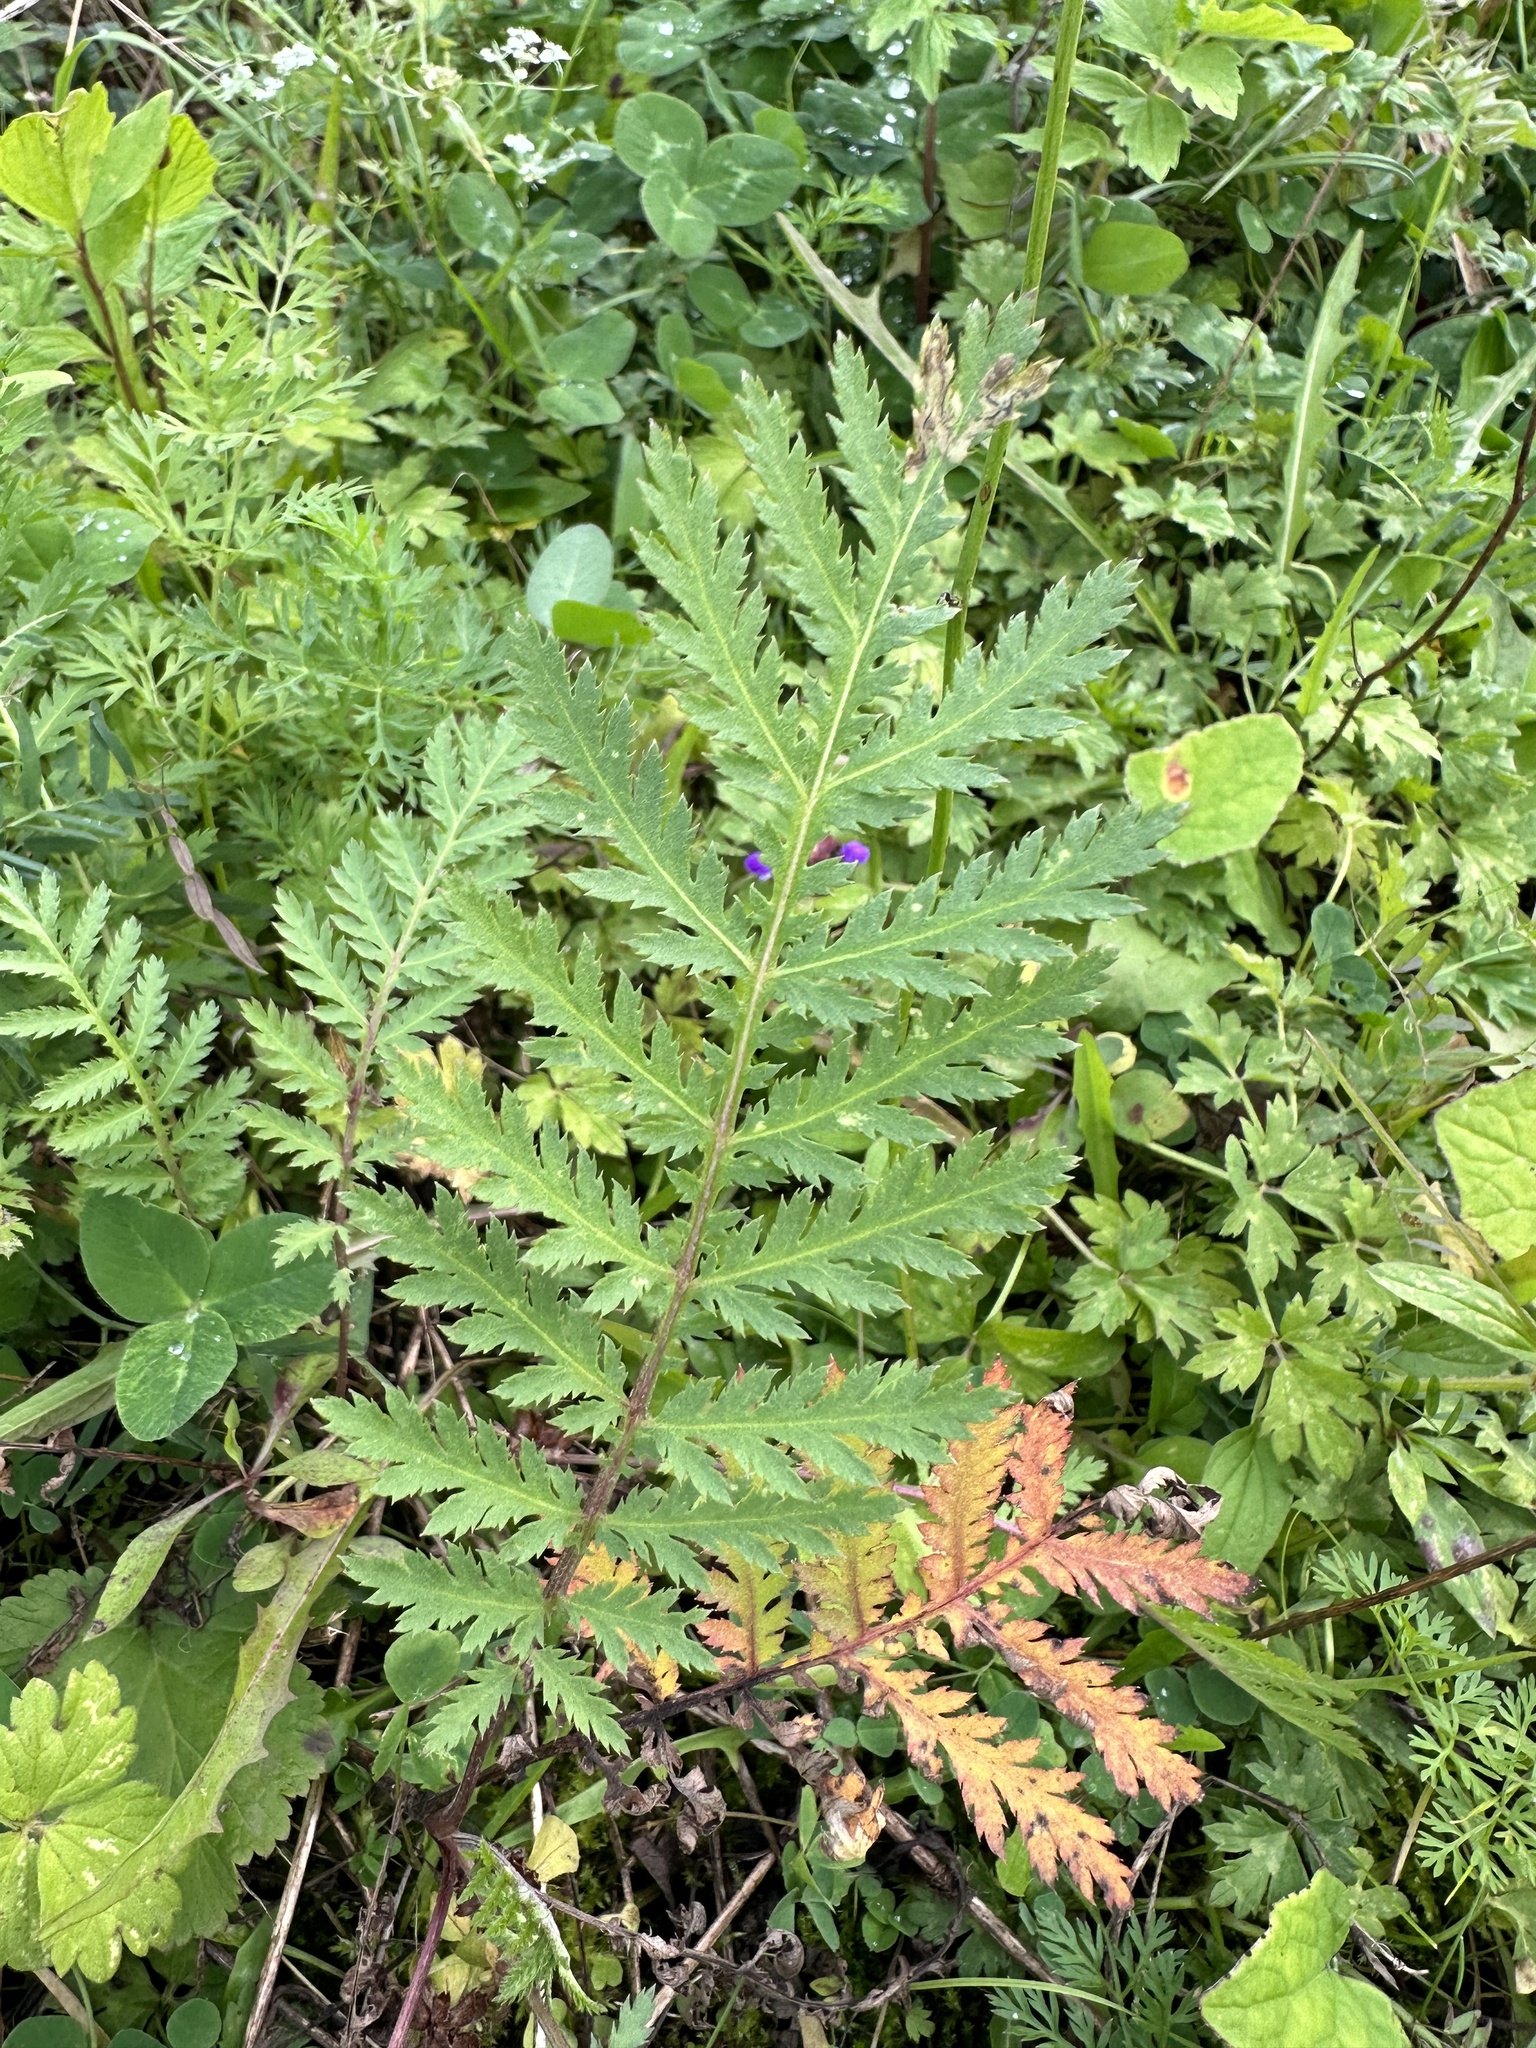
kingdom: Plantae
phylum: Tracheophyta
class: Magnoliopsida
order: Asterales
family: Asteraceae
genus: Tanacetum
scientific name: Tanacetum vulgare
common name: Common tansy
